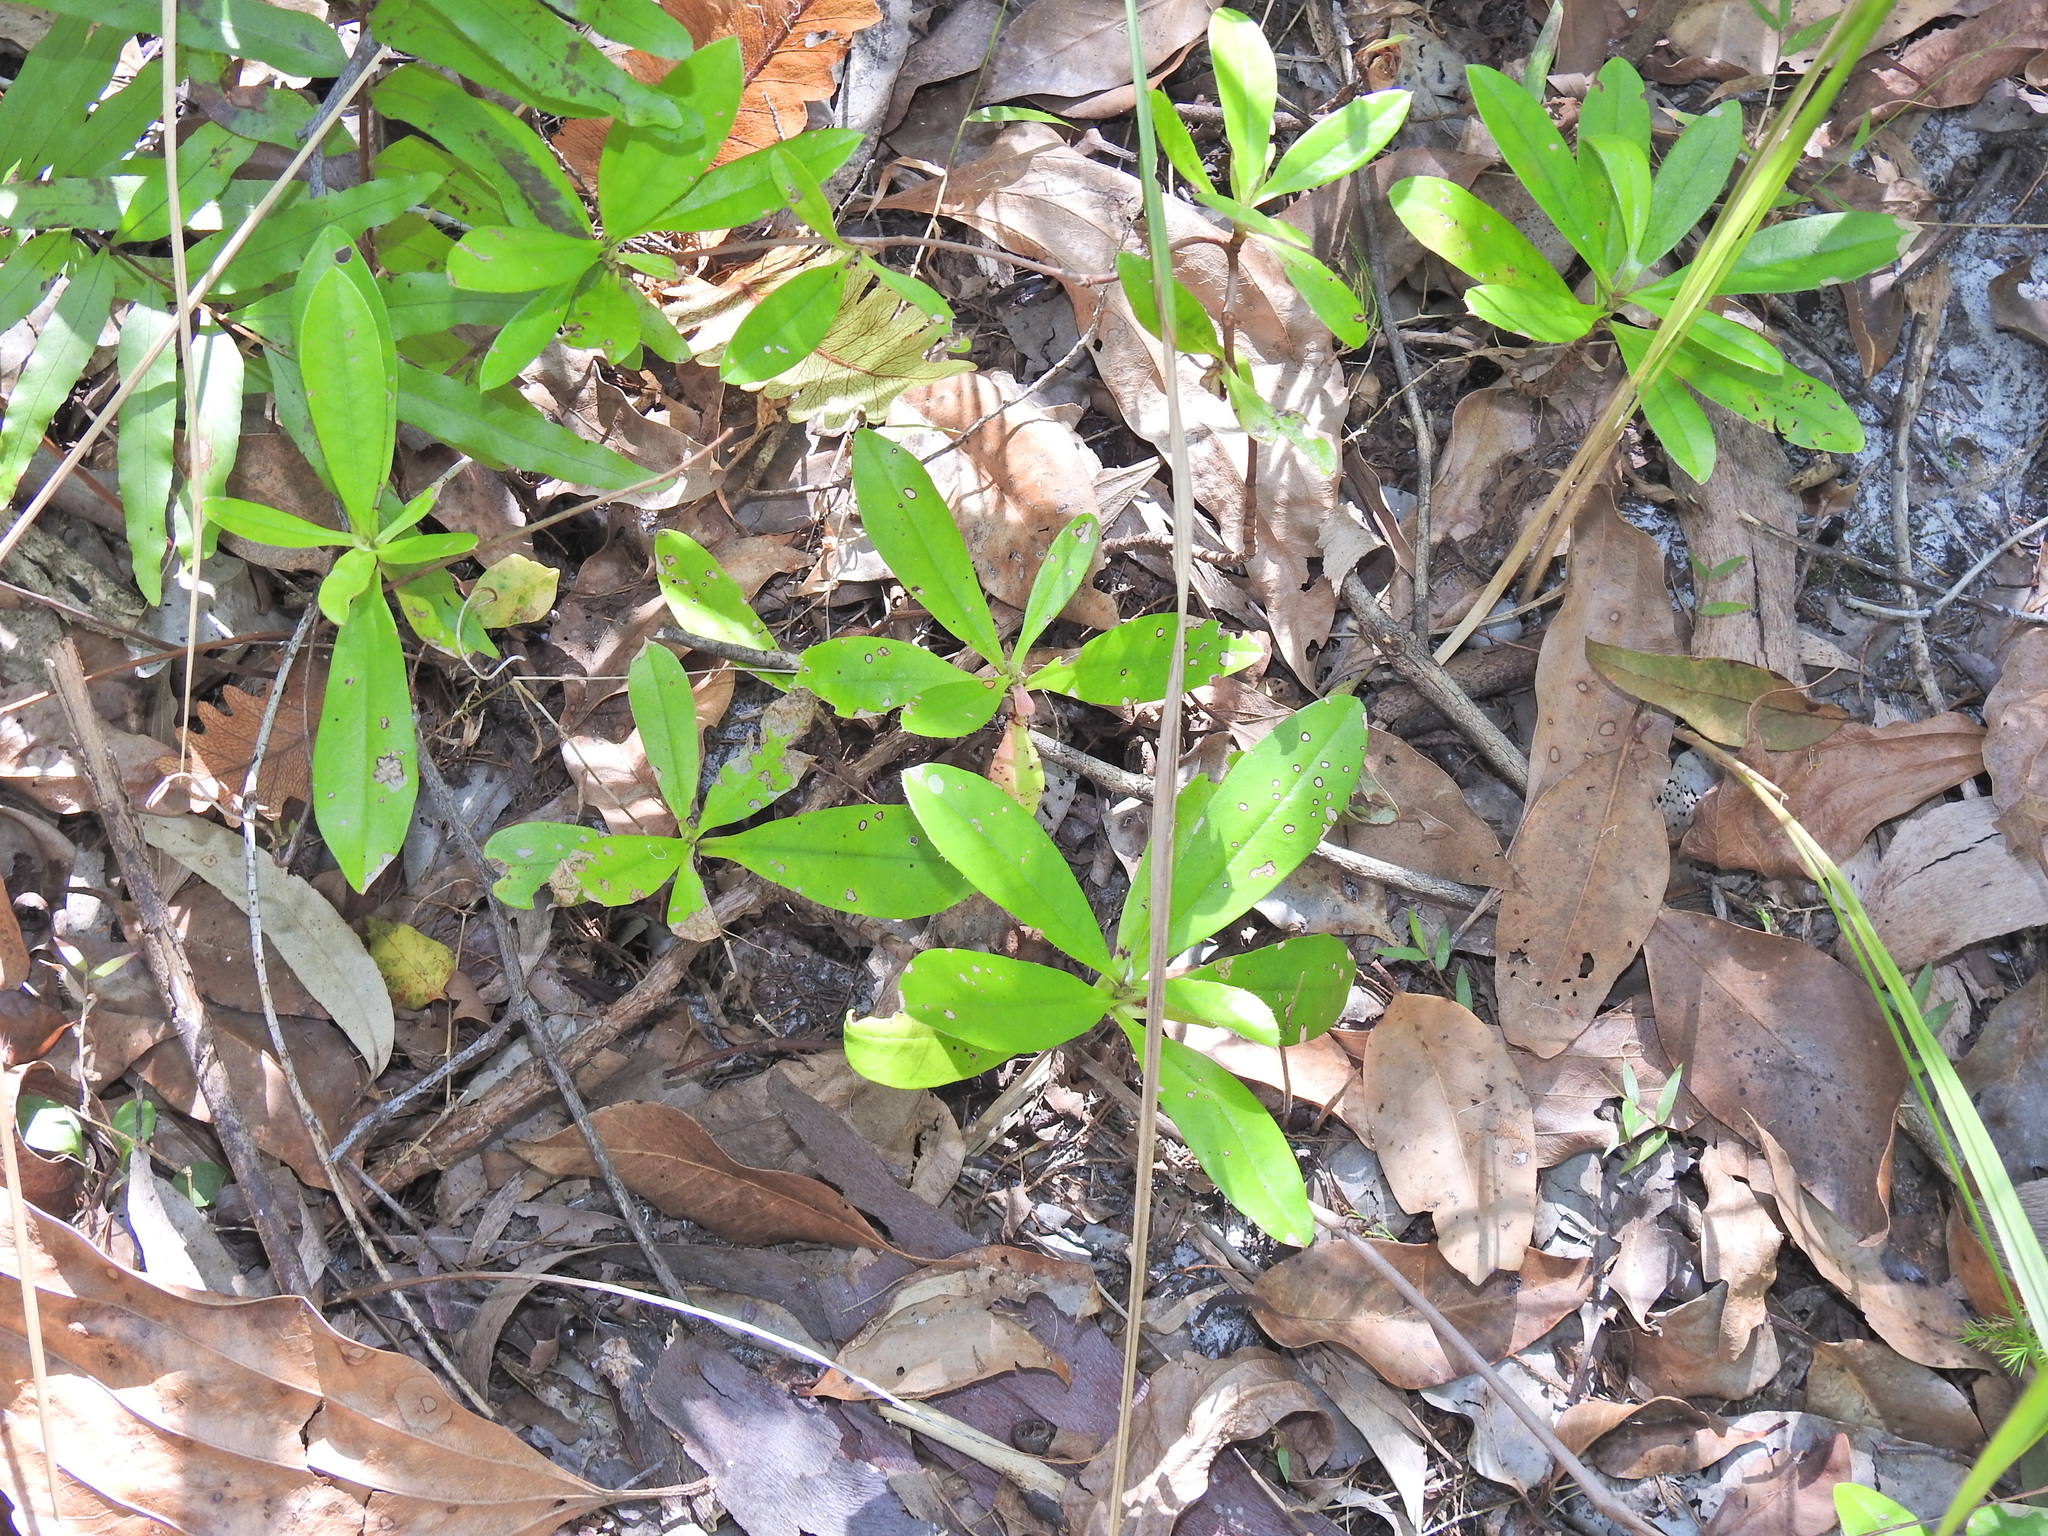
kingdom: Plantae
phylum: Tracheophyta
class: Magnoliopsida
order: Dilleniales
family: Dilleniaceae
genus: Hibbertia
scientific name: Hibbertia scandens
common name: Climbing guinea-flower
